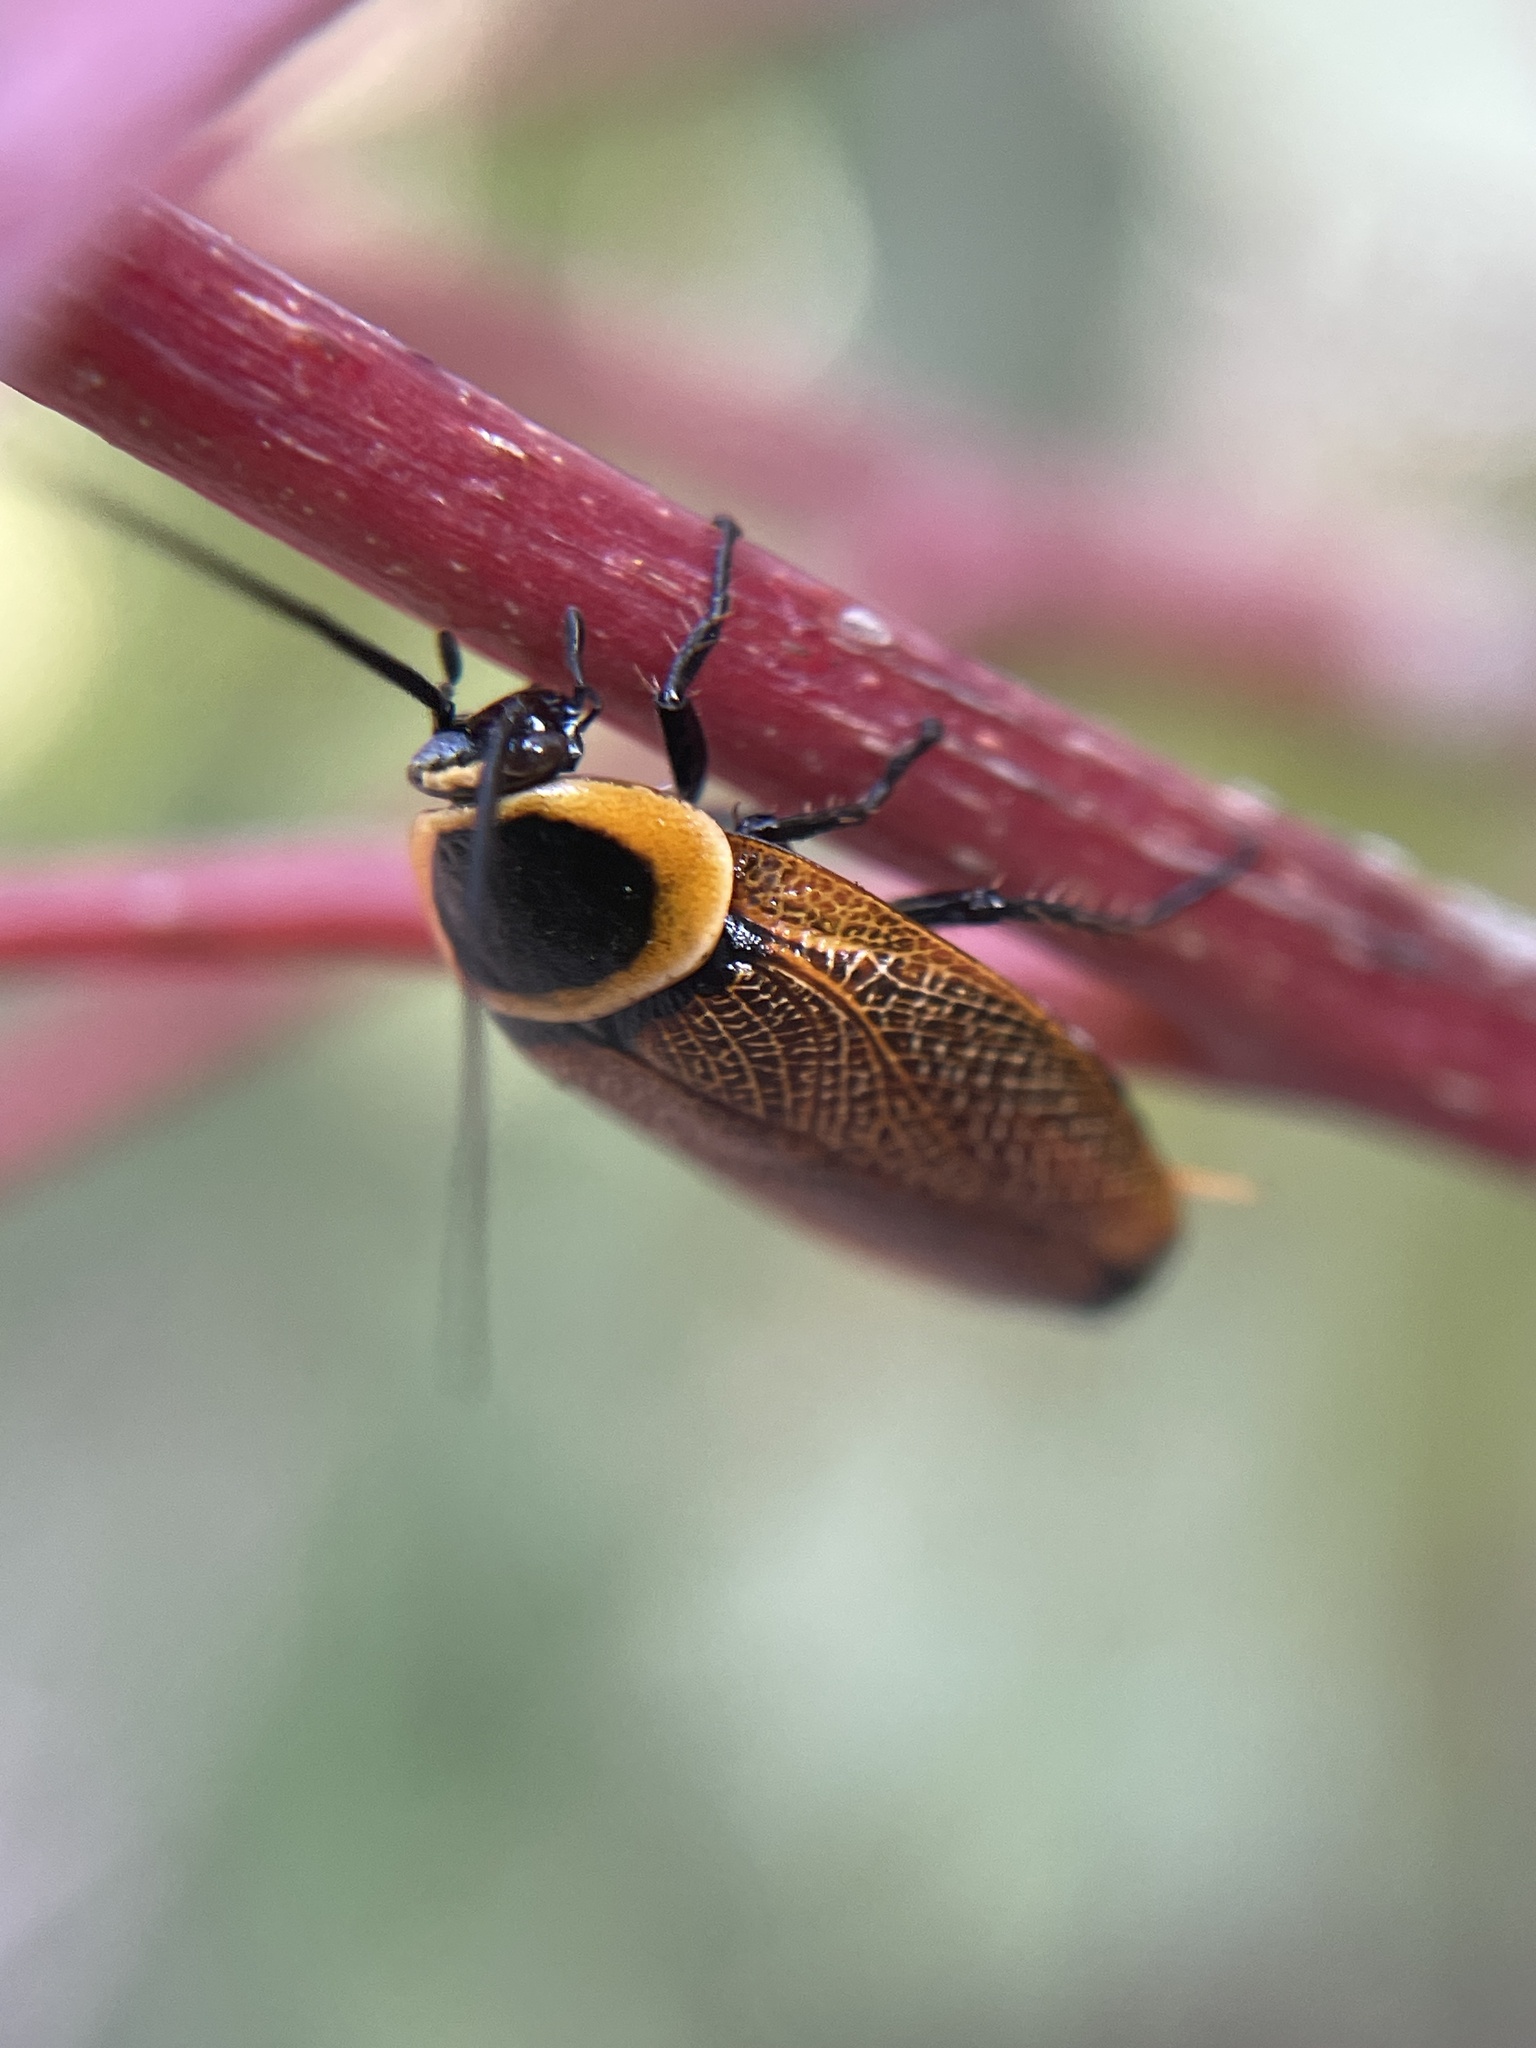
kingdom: Animalia
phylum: Arthropoda
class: Insecta
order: Blattodea
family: Ectobiidae
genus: Ellipsidion
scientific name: Ellipsidion australe
